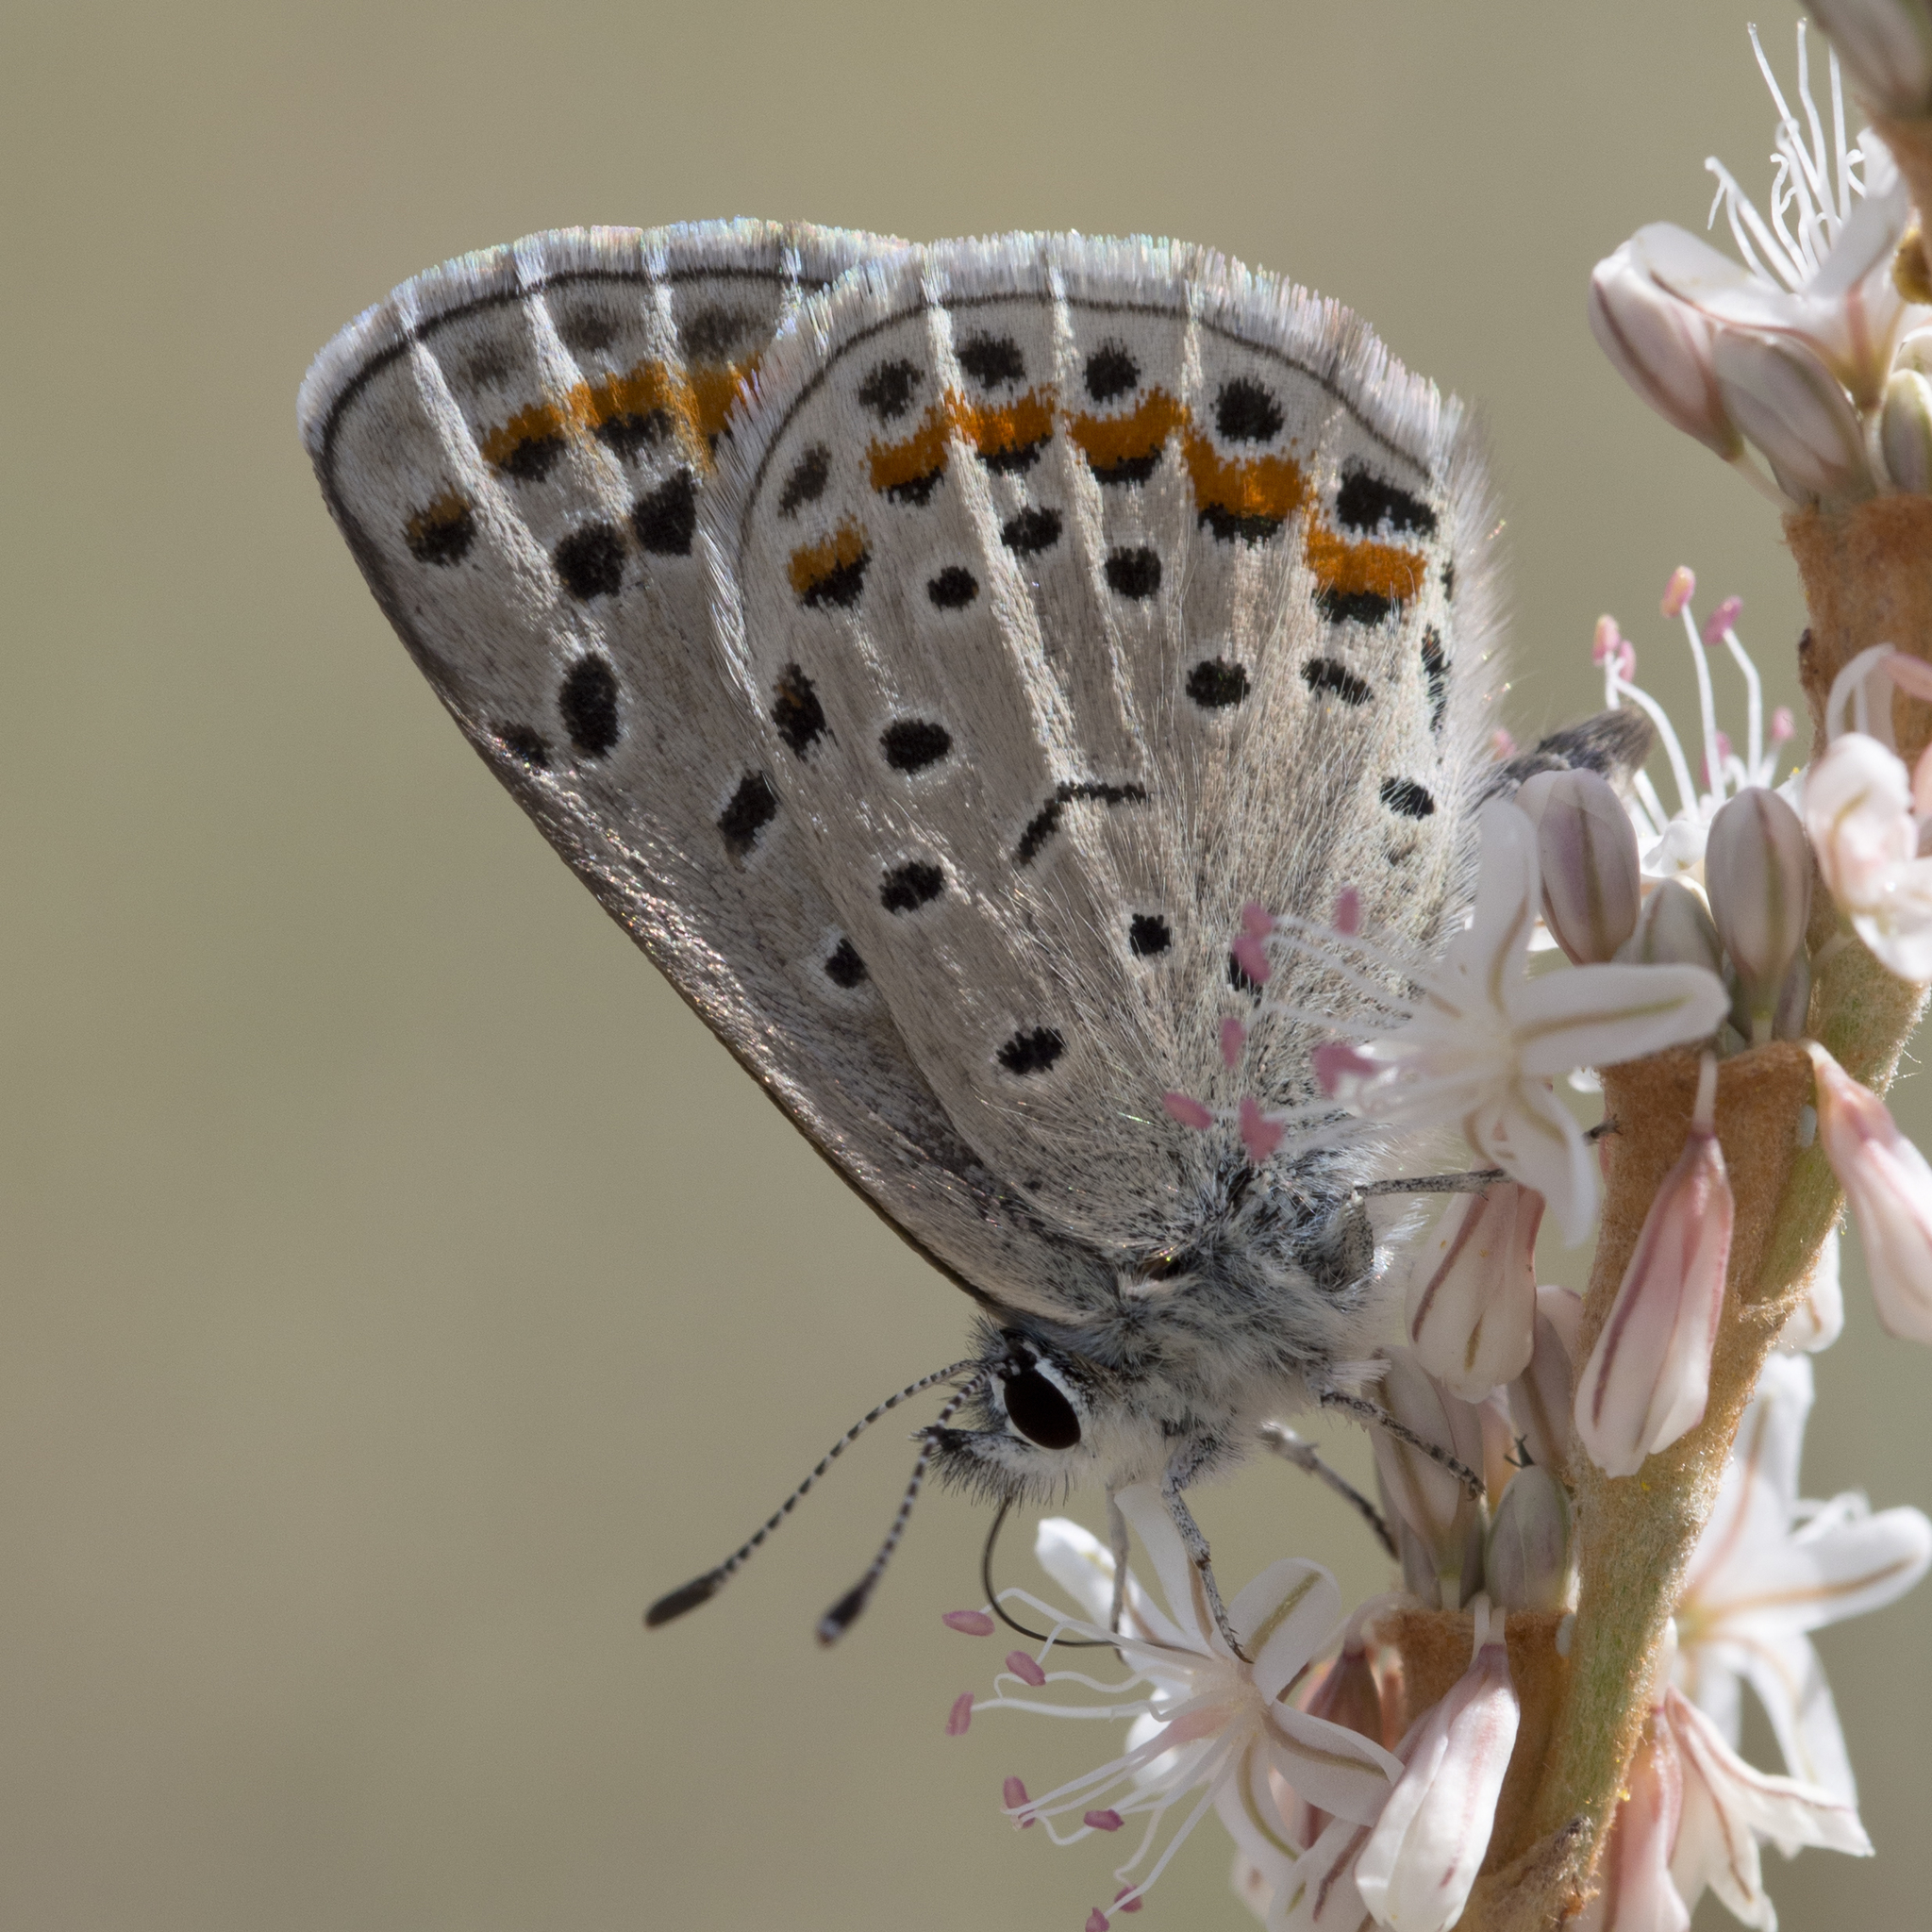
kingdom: Animalia
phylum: Arthropoda
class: Insecta
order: Lepidoptera
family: Lycaenidae
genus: Euphilotes
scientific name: Euphilotes spaldingi
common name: Spalding's blue
